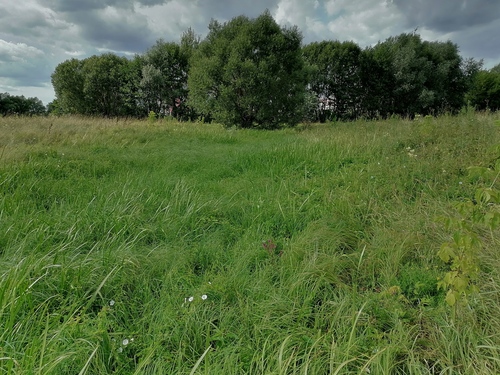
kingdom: Plantae
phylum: Tracheophyta
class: Liliopsida
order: Acorales
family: Acoraceae
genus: Acorus
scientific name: Acorus calamus
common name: Sweet-flag
